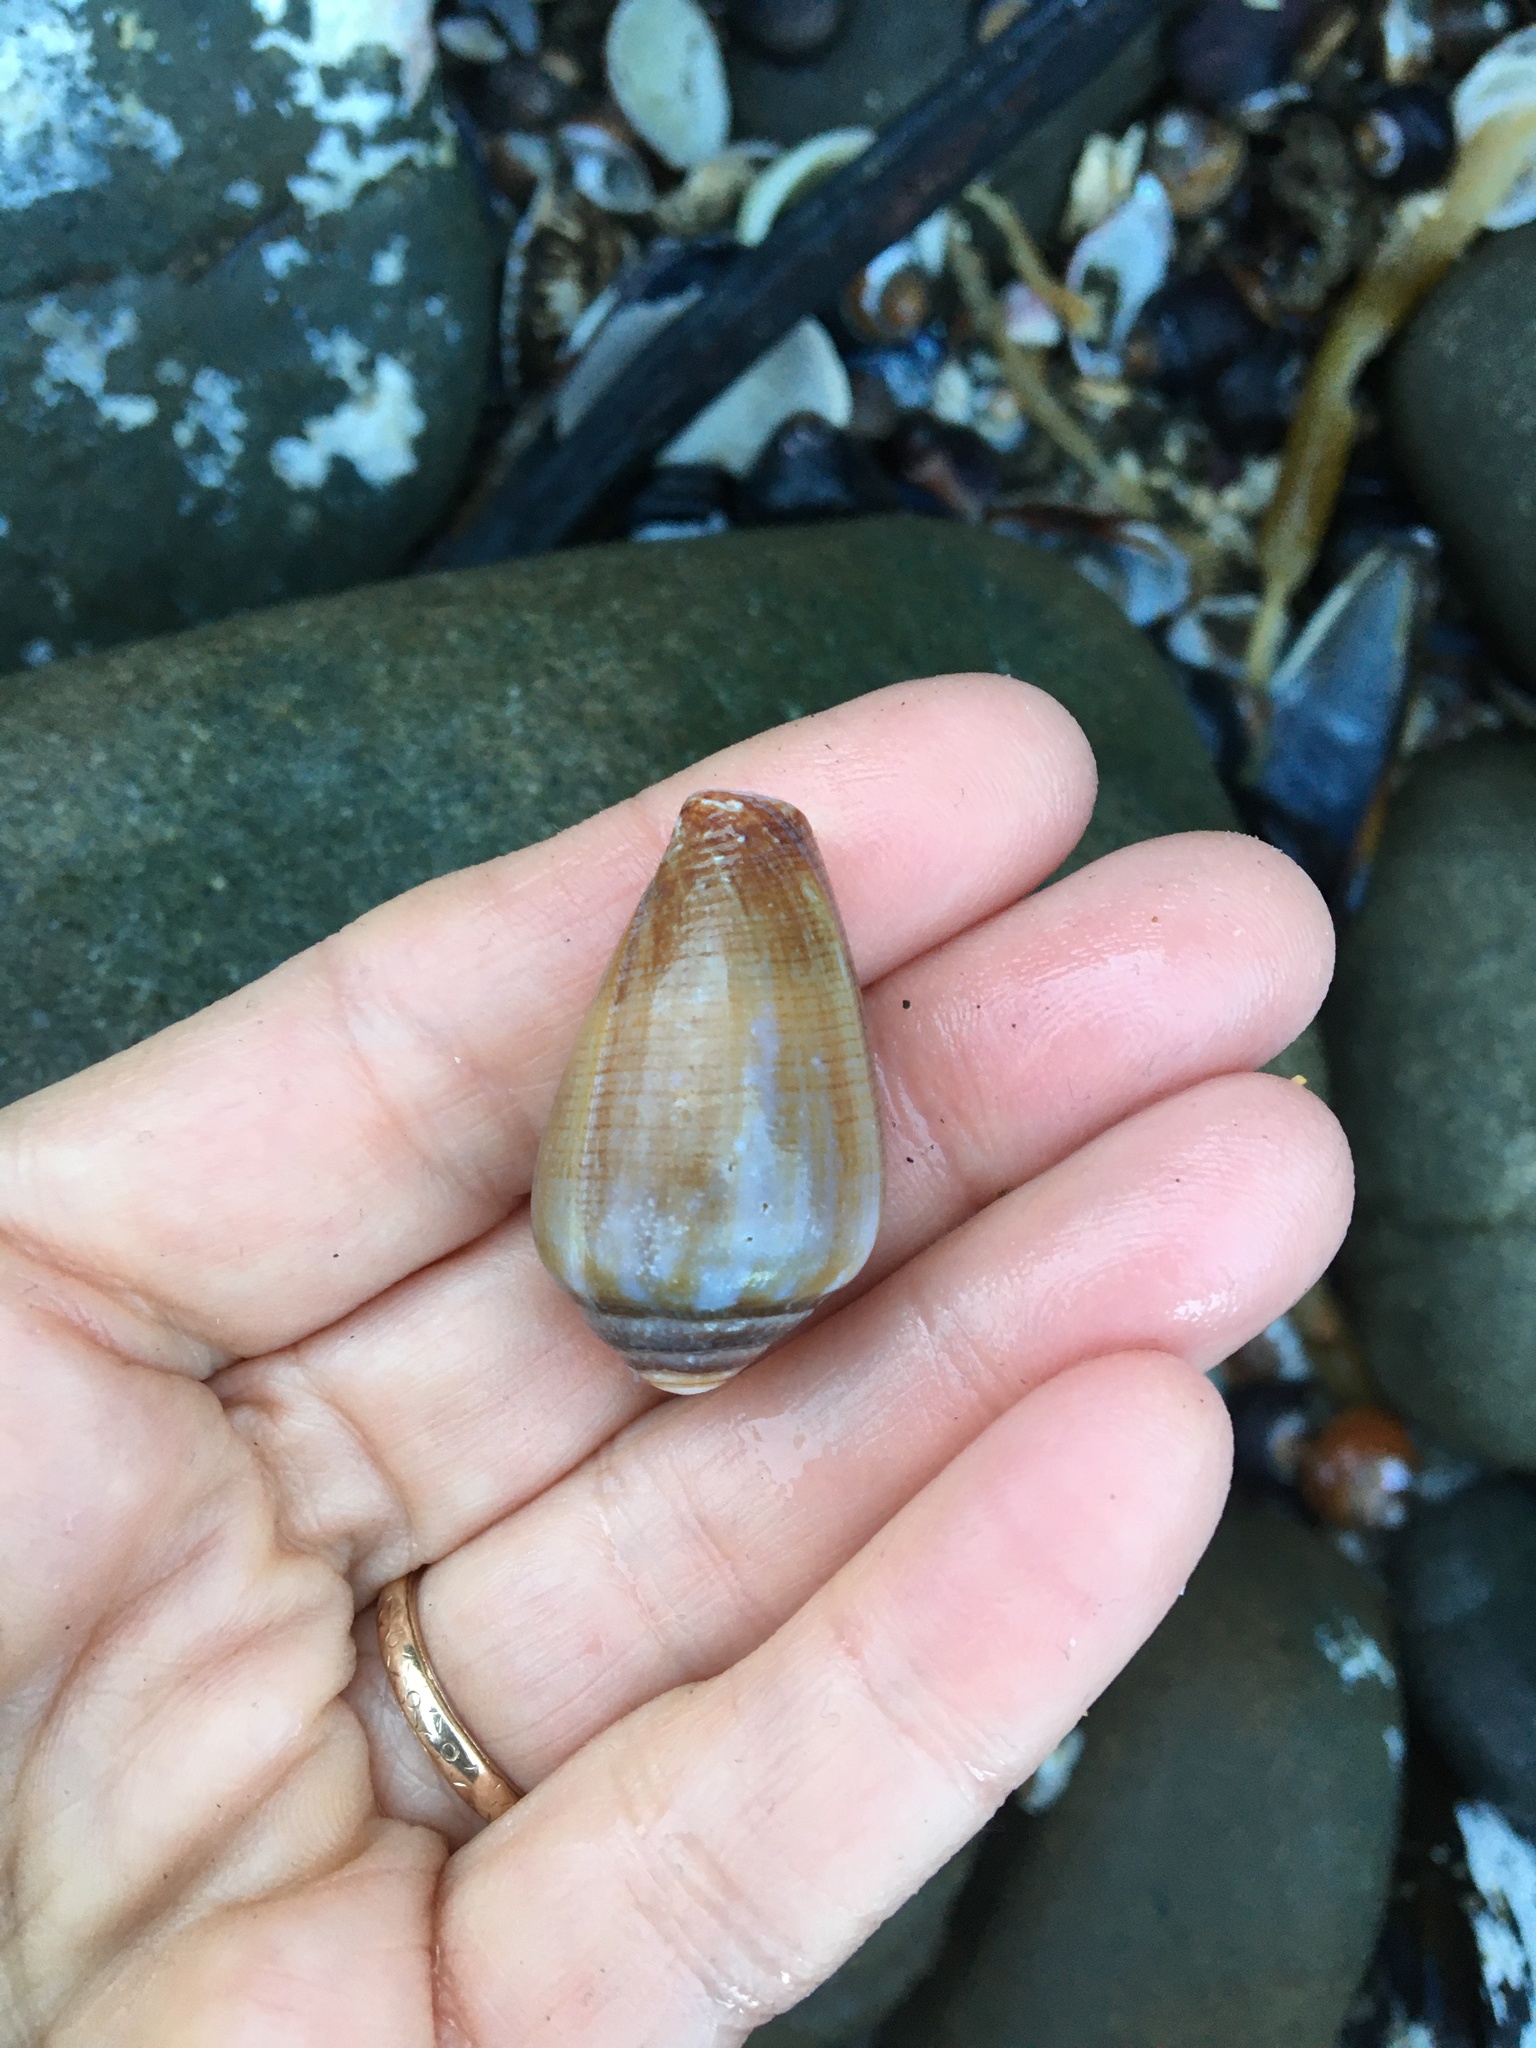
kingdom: Animalia
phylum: Mollusca
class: Gastropoda
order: Neogastropoda
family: Conidae
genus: Californiconus
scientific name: Californiconus californicus
